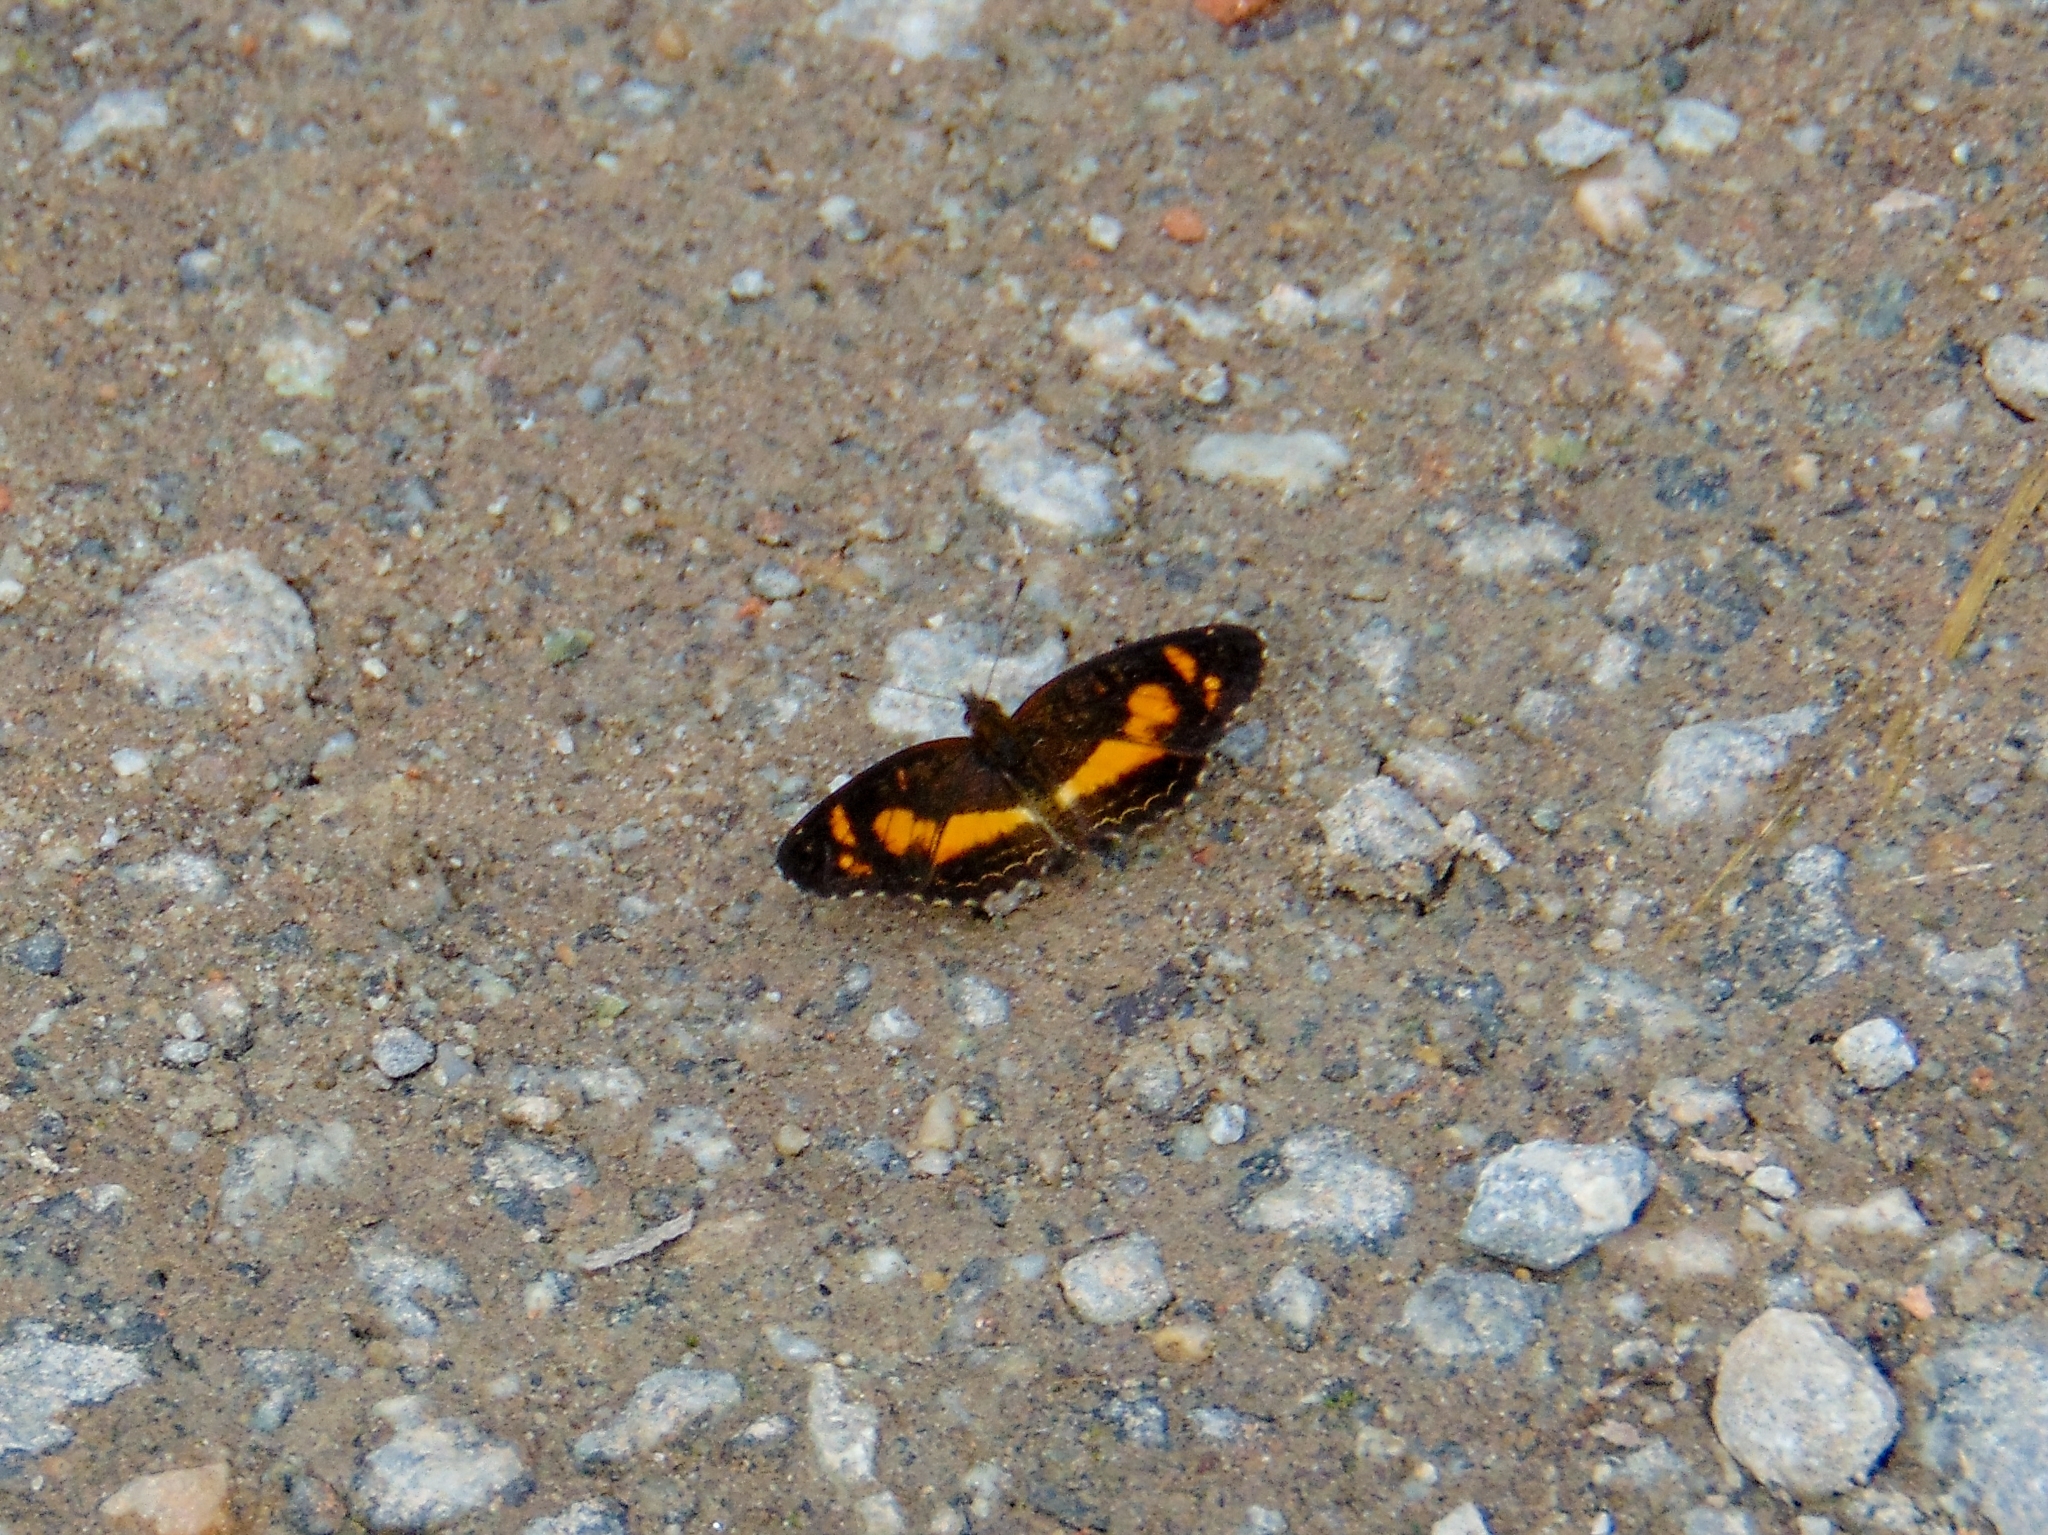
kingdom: Animalia
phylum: Arthropoda
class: Insecta
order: Lepidoptera
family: Nymphalidae
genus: Telenassa
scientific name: Telenassa teletusa
